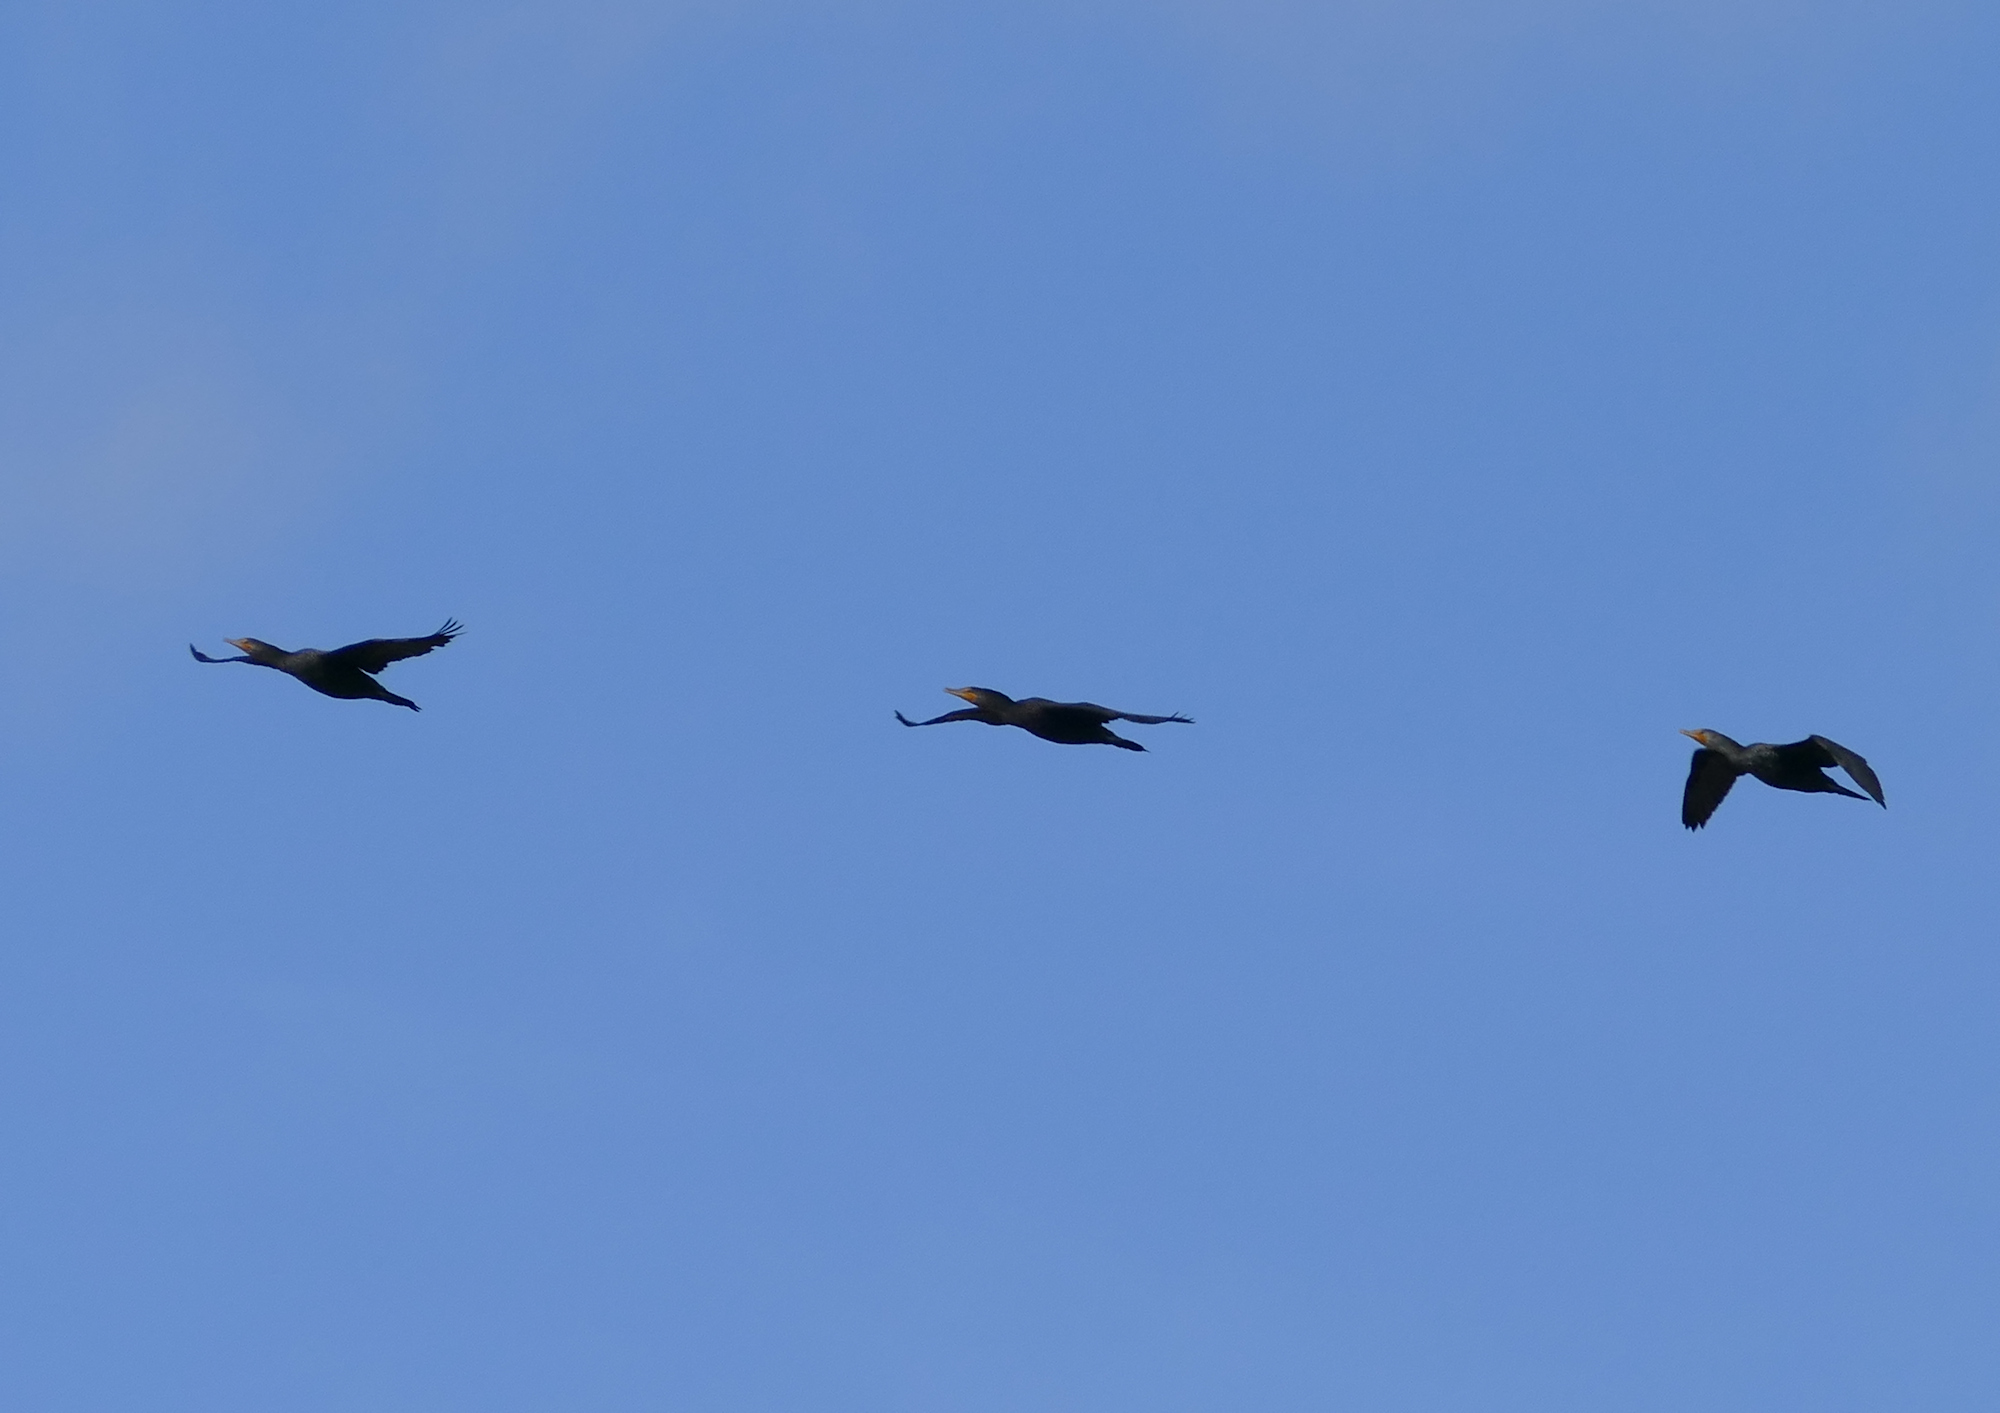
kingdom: Animalia
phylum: Chordata
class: Aves
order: Suliformes
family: Phalacrocoracidae
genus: Phalacrocorax
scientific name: Phalacrocorax auritus
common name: Double-crested cormorant
